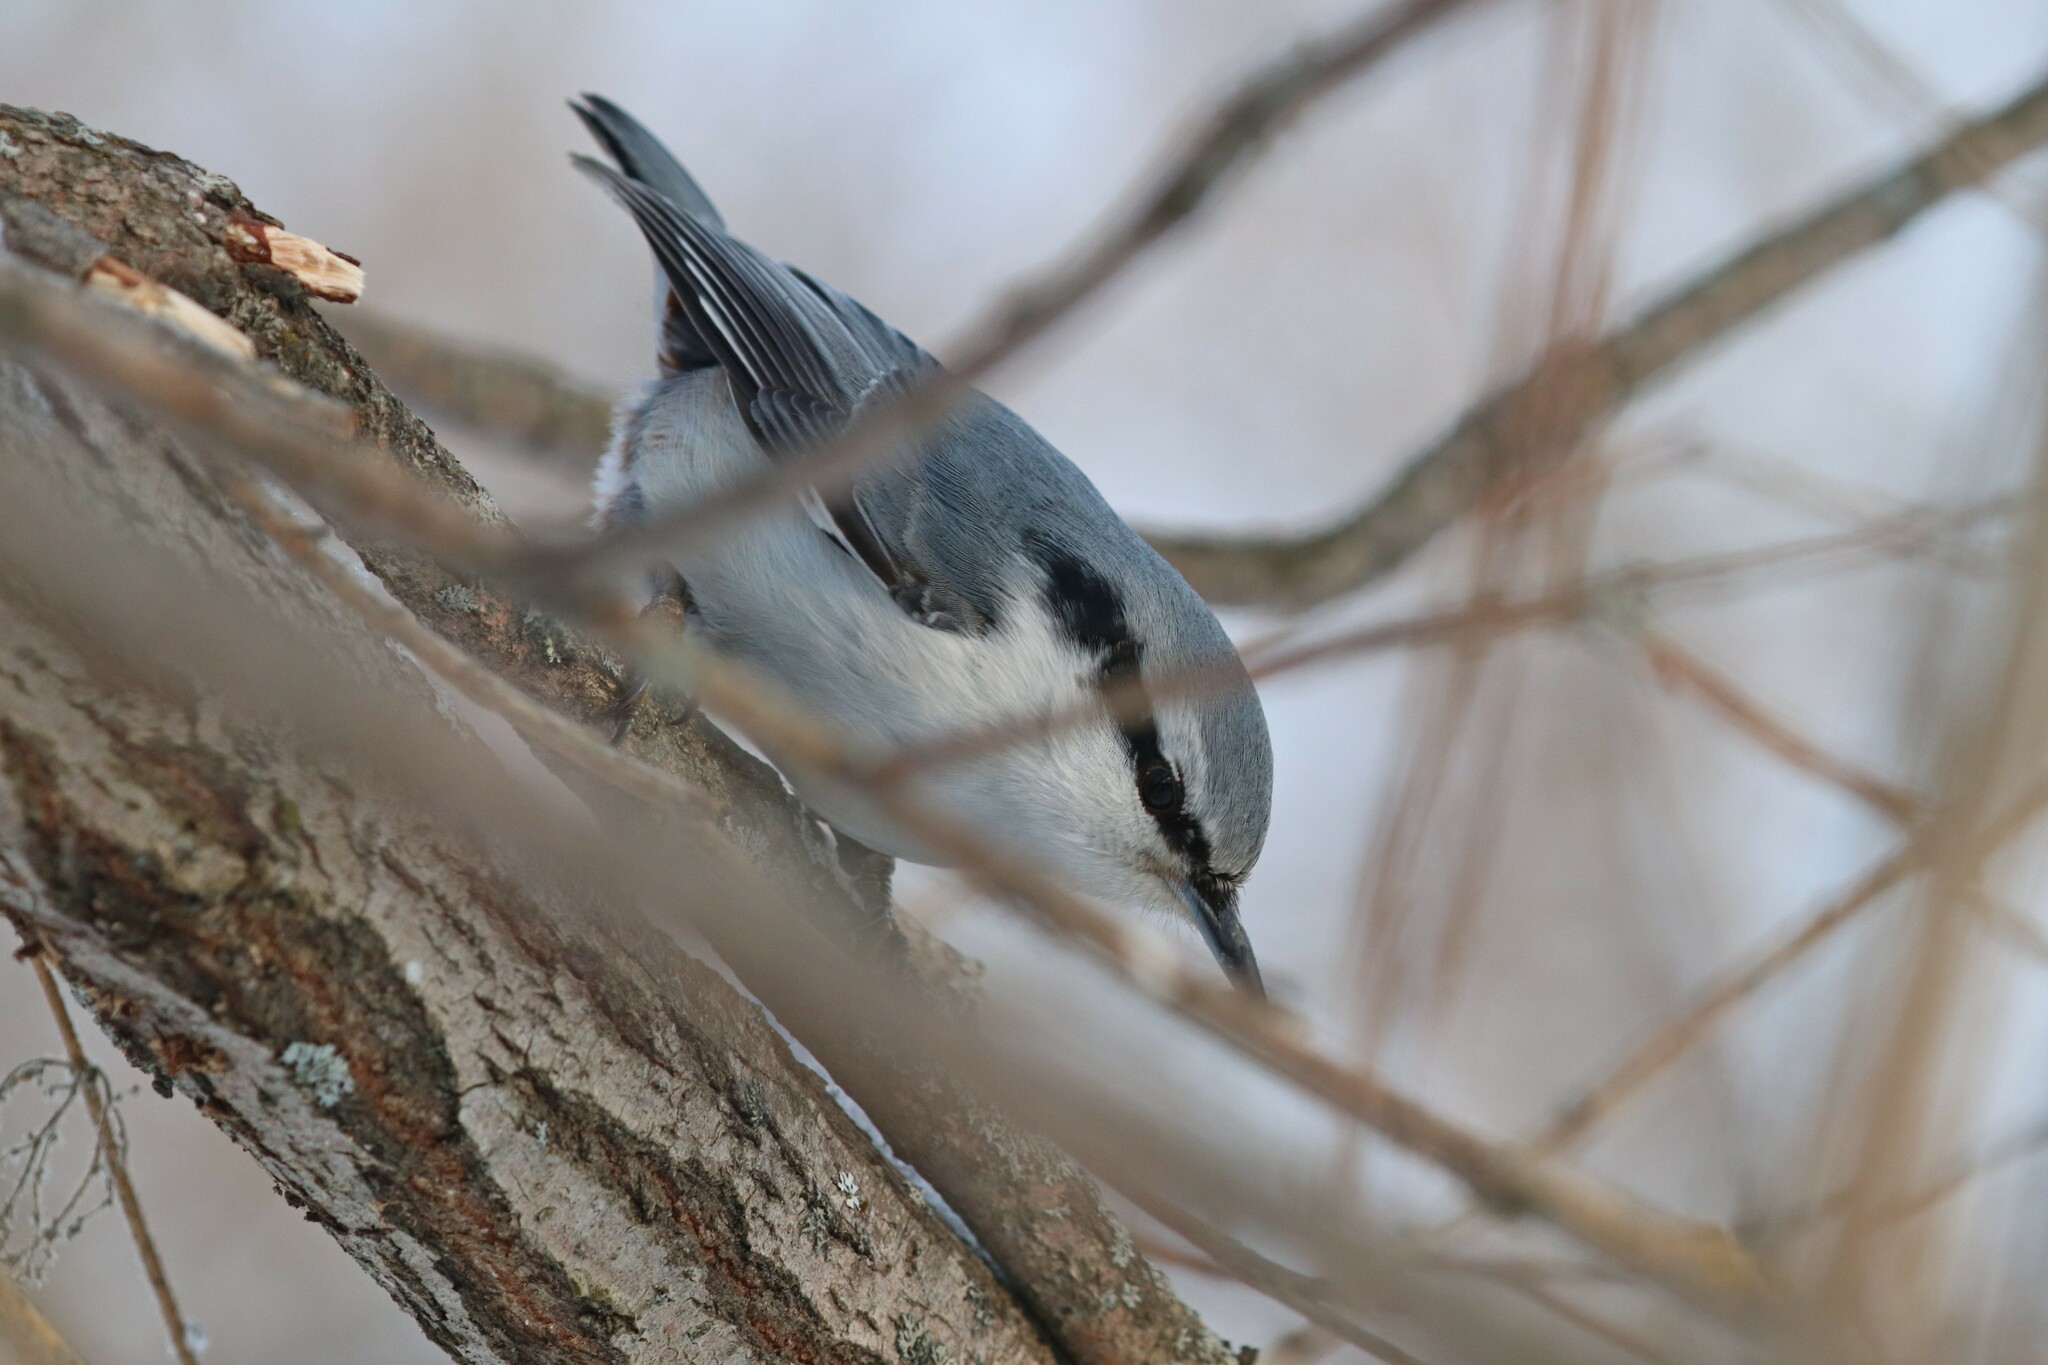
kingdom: Animalia
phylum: Chordata
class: Aves
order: Passeriformes
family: Sittidae
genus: Sitta
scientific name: Sitta europaea
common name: Eurasian nuthatch
